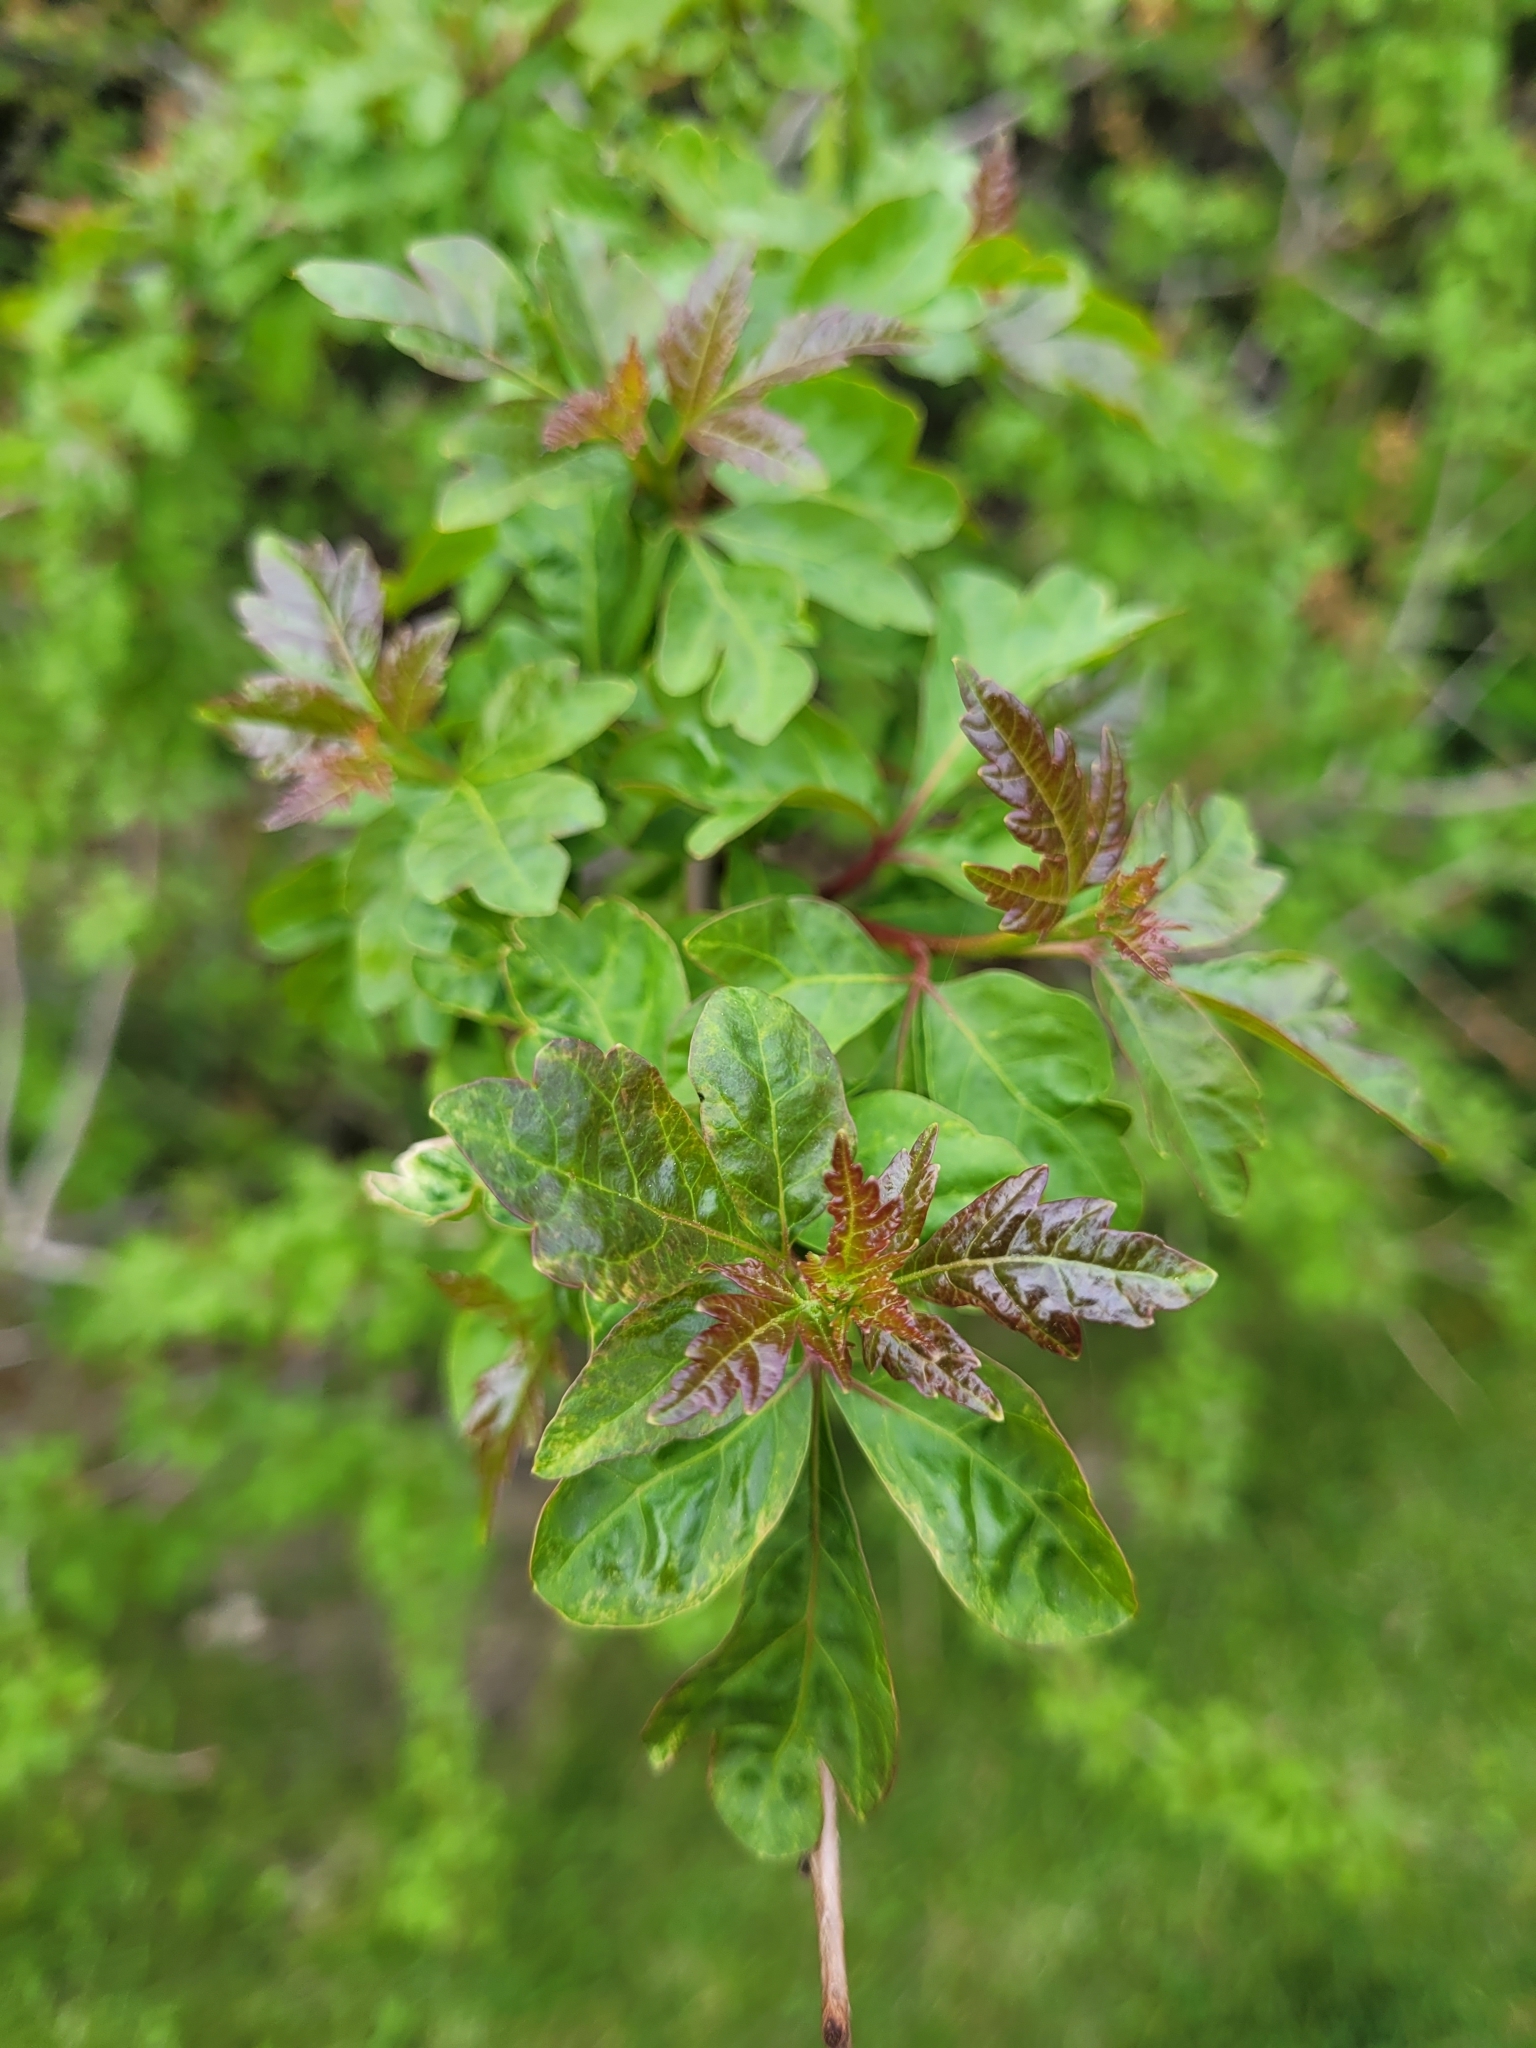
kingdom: Plantae
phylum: Tracheophyta
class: Magnoliopsida
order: Sapindales
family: Anacardiaceae
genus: Rhus
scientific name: Rhus aromatica
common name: Aromatic sumac
